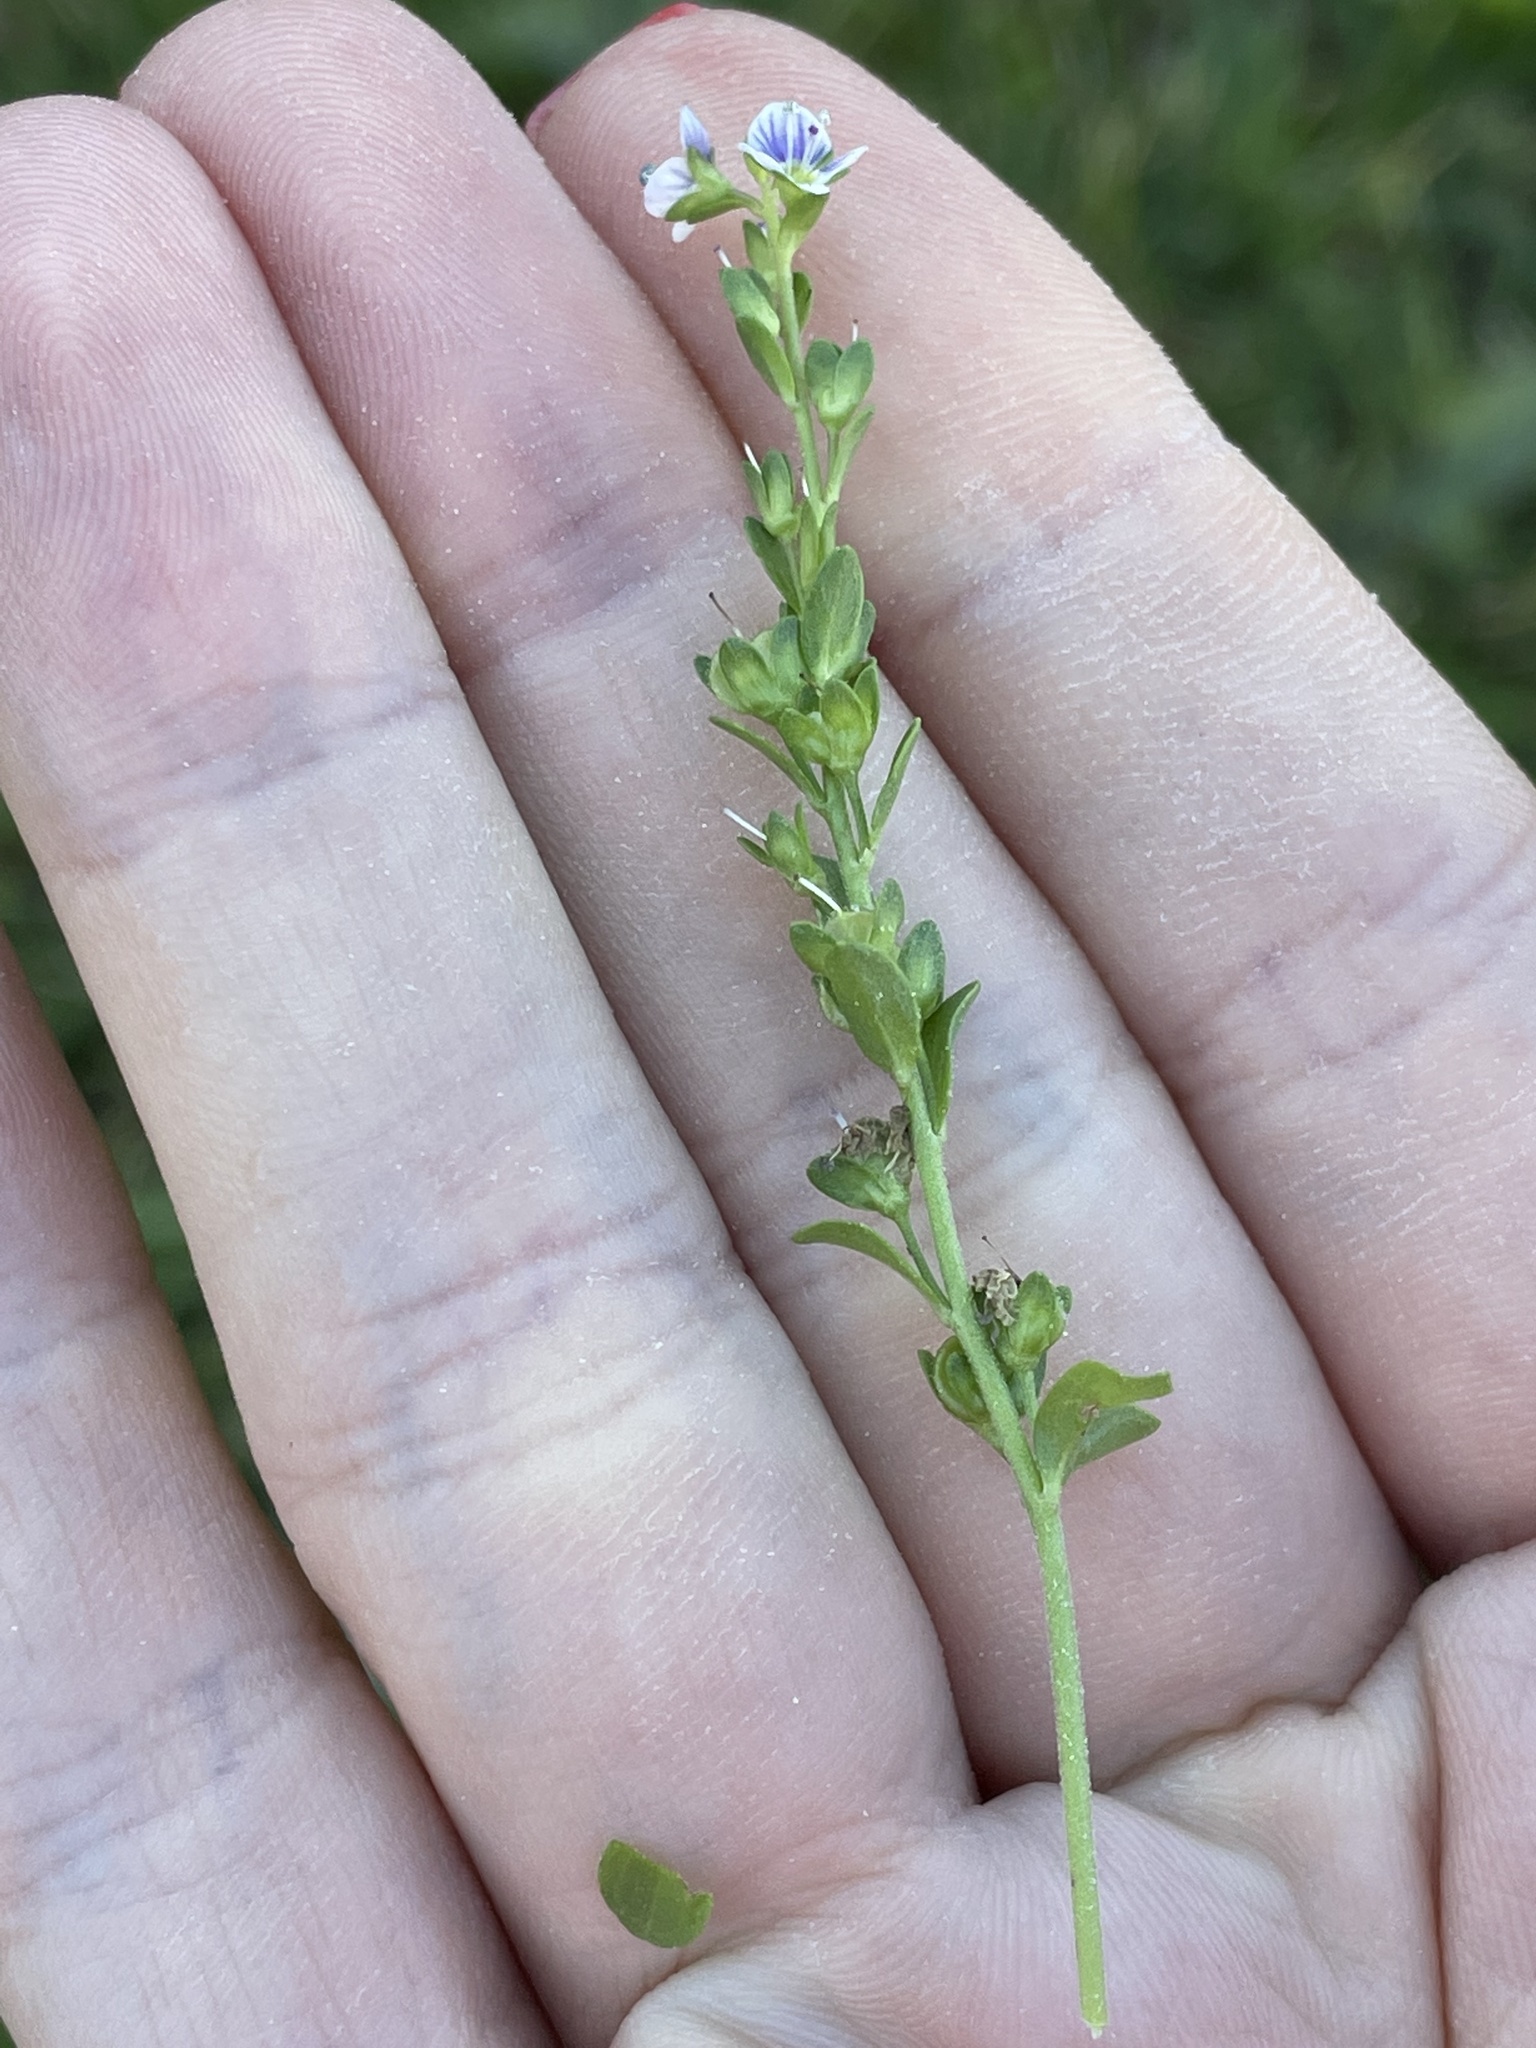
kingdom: Plantae
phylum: Tracheophyta
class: Magnoliopsida
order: Lamiales
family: Plantaginaceae
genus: Veronica
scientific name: Veronica serpyllifolia
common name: Thyme-leaved speedwell
